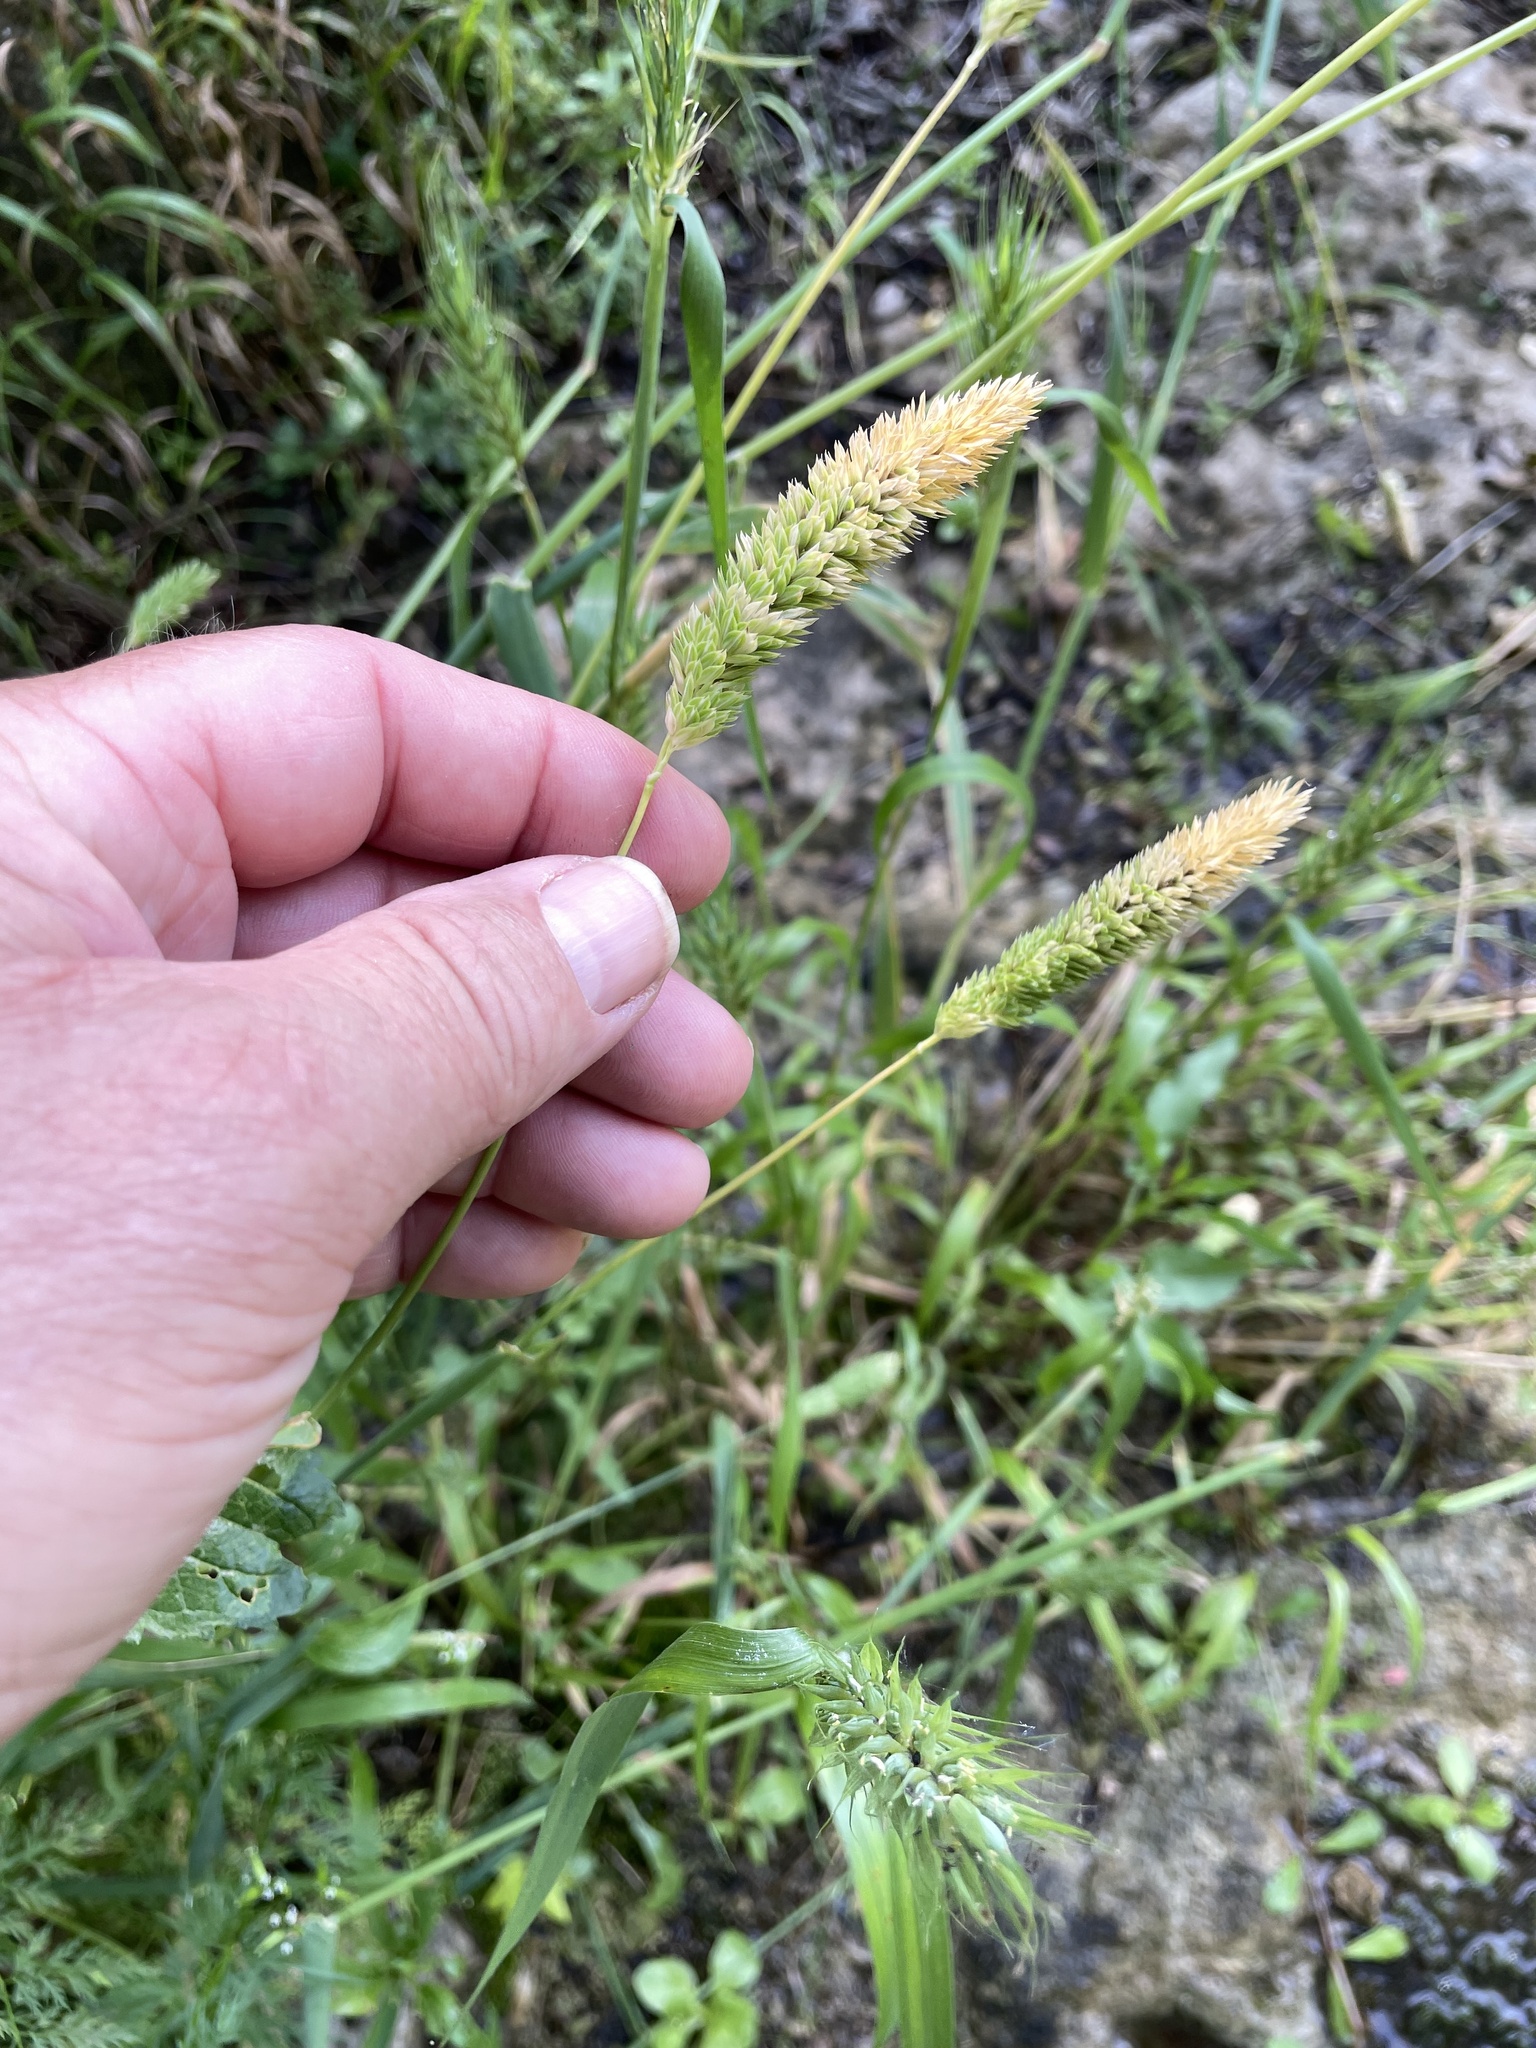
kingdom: Plantae
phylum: Tracheophyta
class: Liliopsida
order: Poales
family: Poaceae
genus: Phalaris
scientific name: Phalaris caroliniana
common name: May grass
